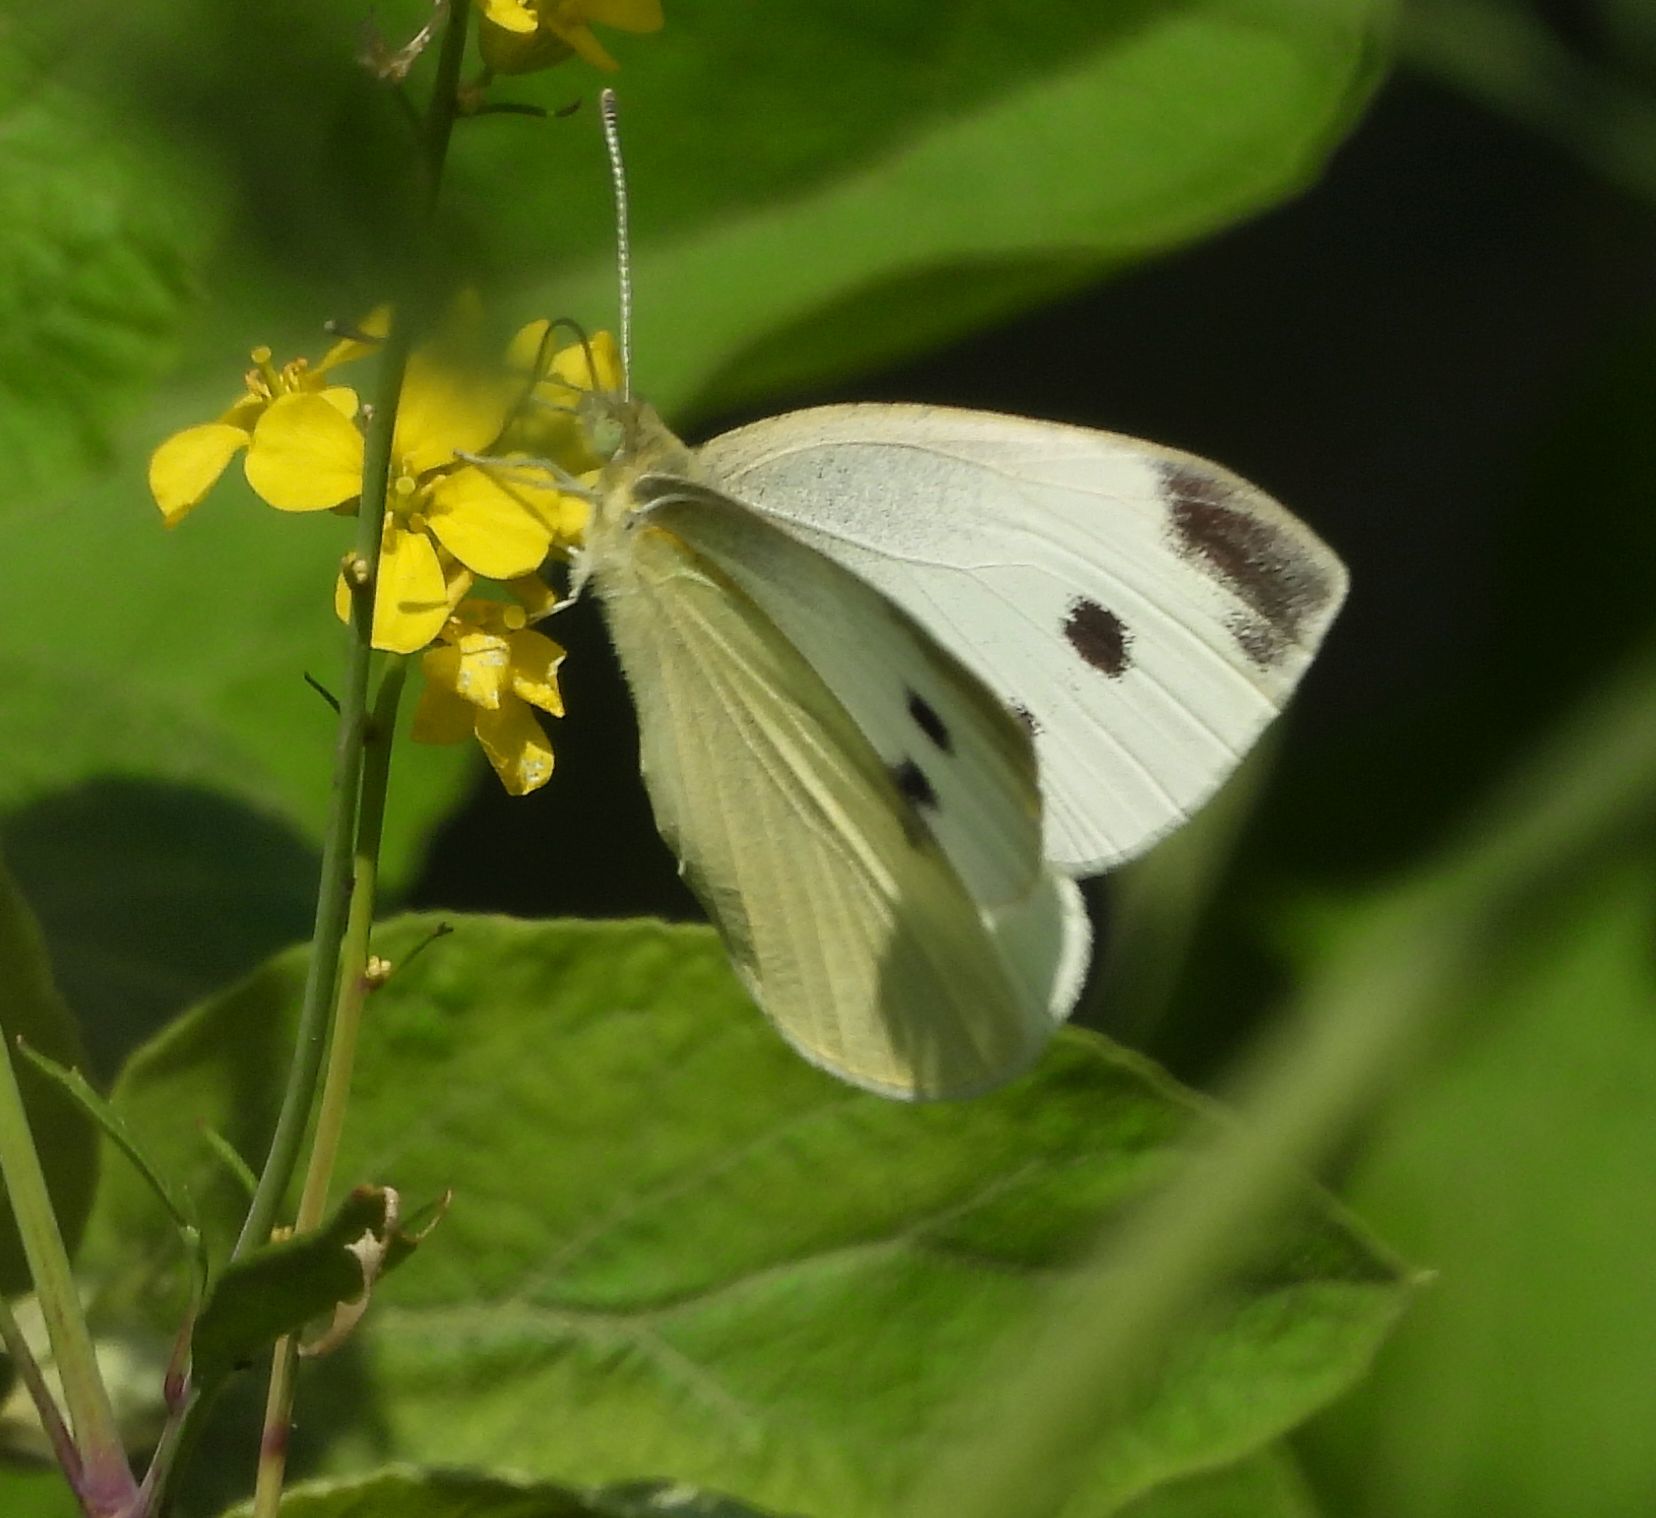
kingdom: Animalia
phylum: Arthropoda
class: Insecta
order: Lepidoptera
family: Pieridae
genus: Pieris
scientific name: Pieris rapae
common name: Small white
